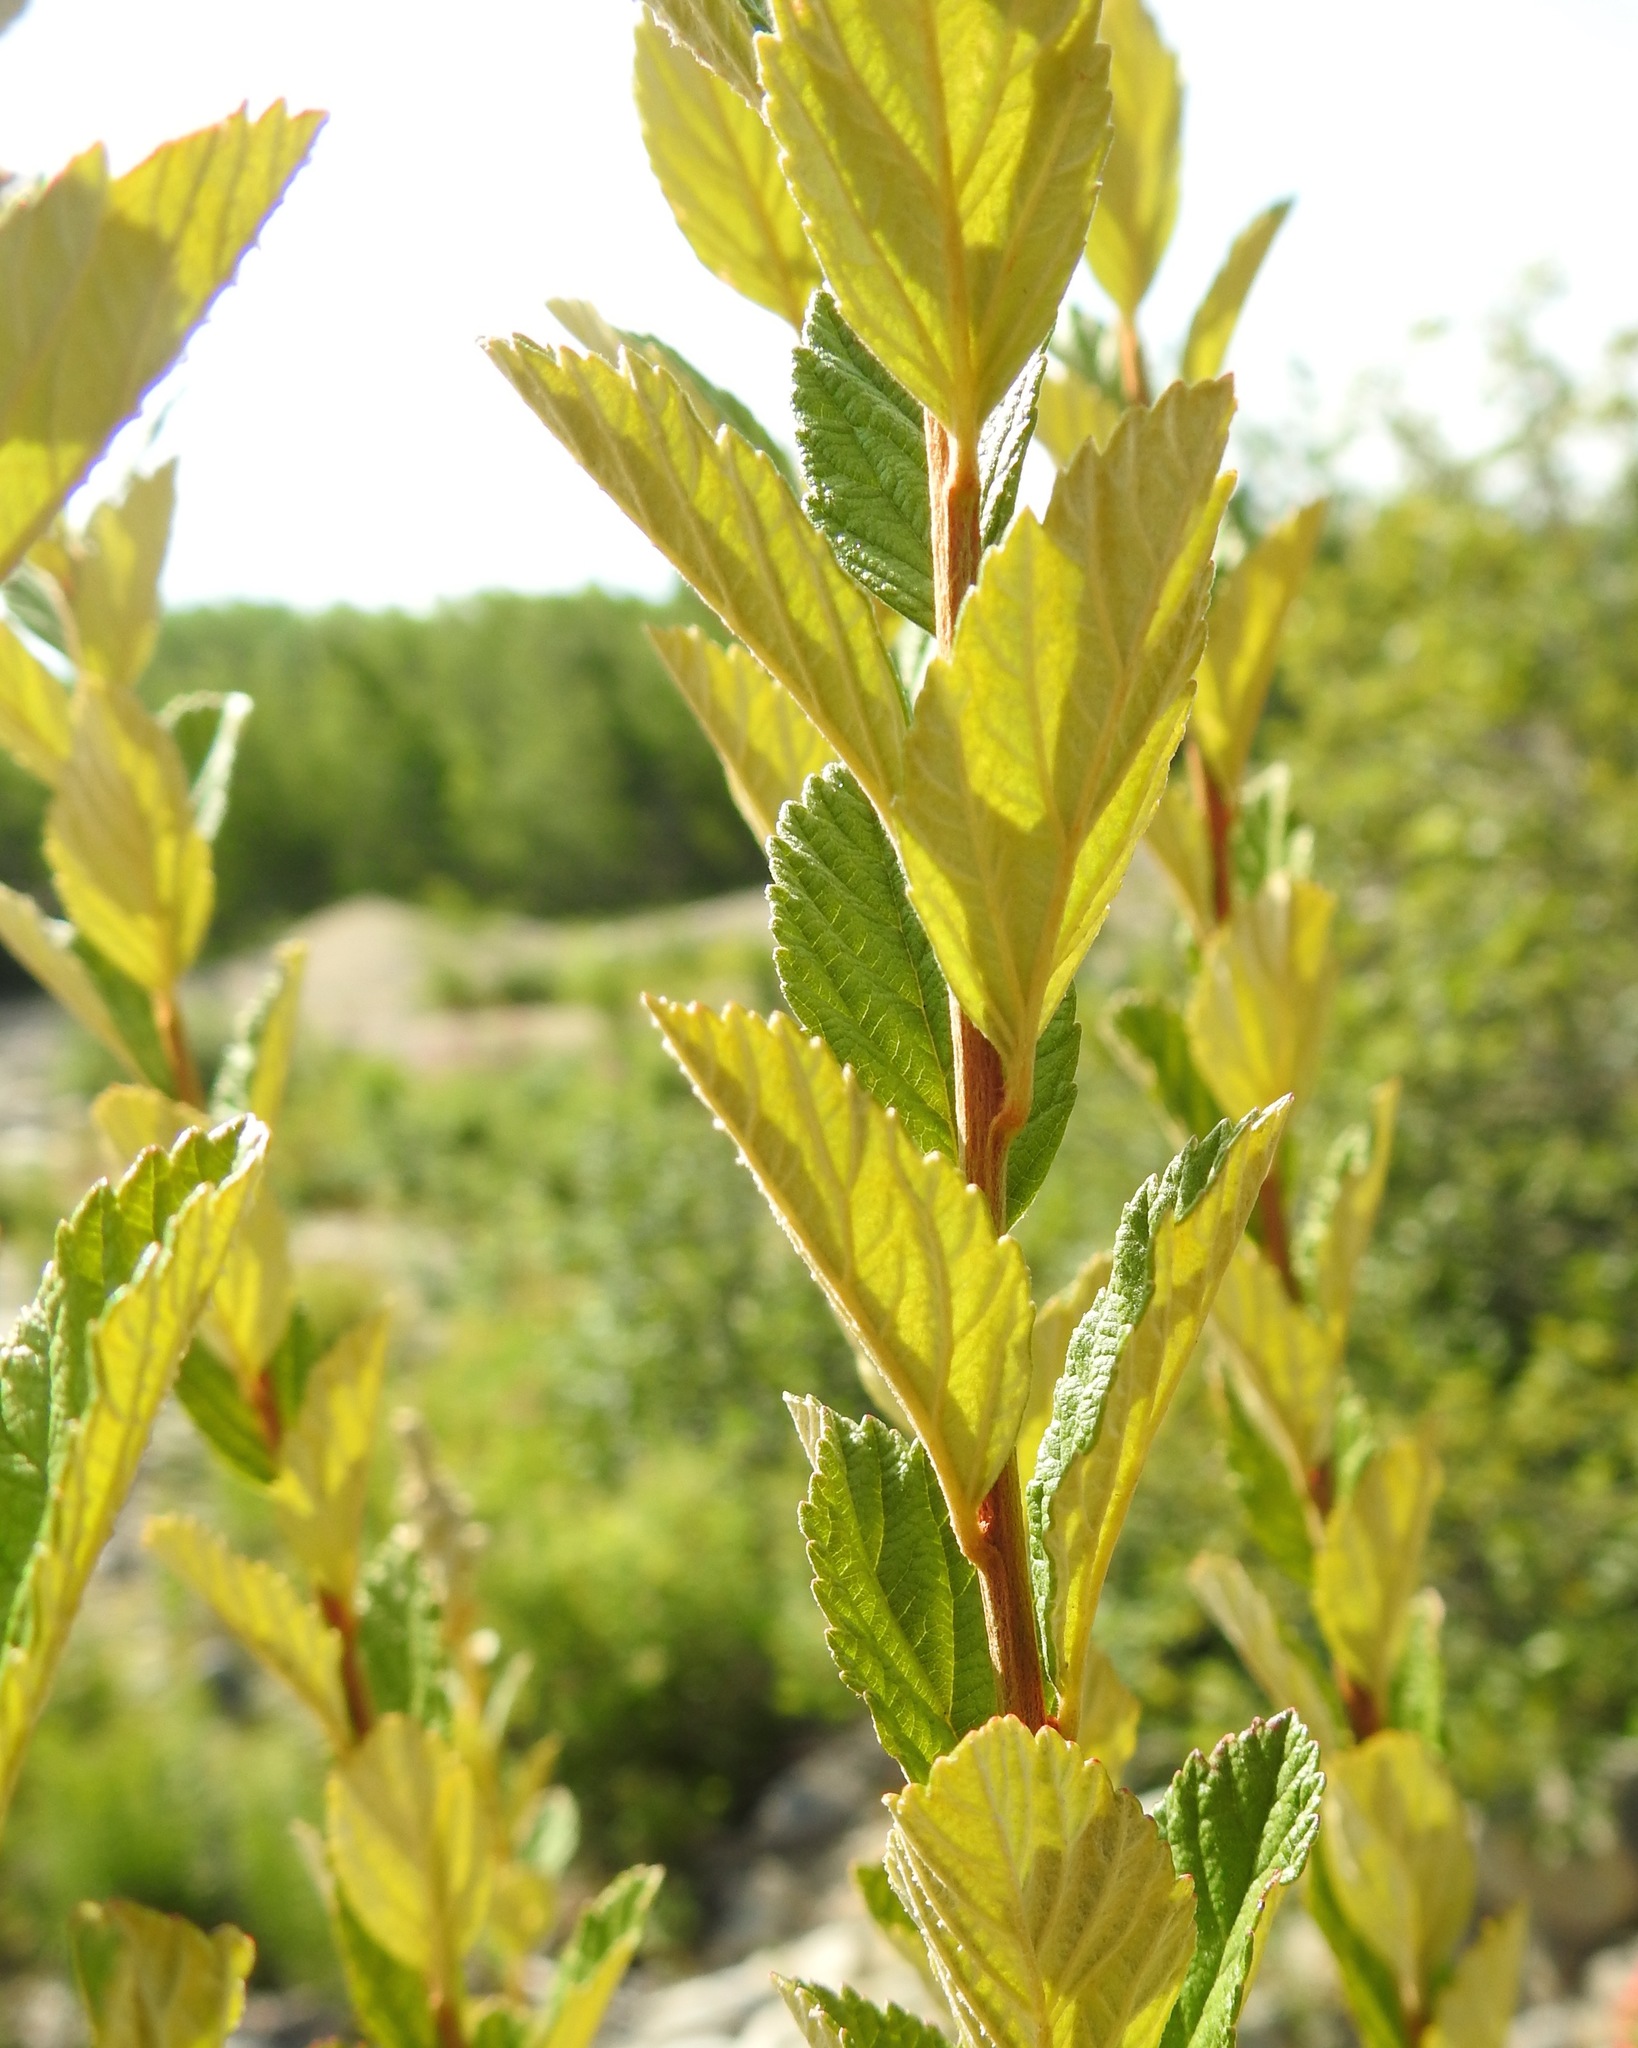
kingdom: Plantae
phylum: Tracheophyta
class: Magnoliopsida
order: Rosales
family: Rosaceae
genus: Spiraea
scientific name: Spiraea tomentosa
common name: Hardhack
